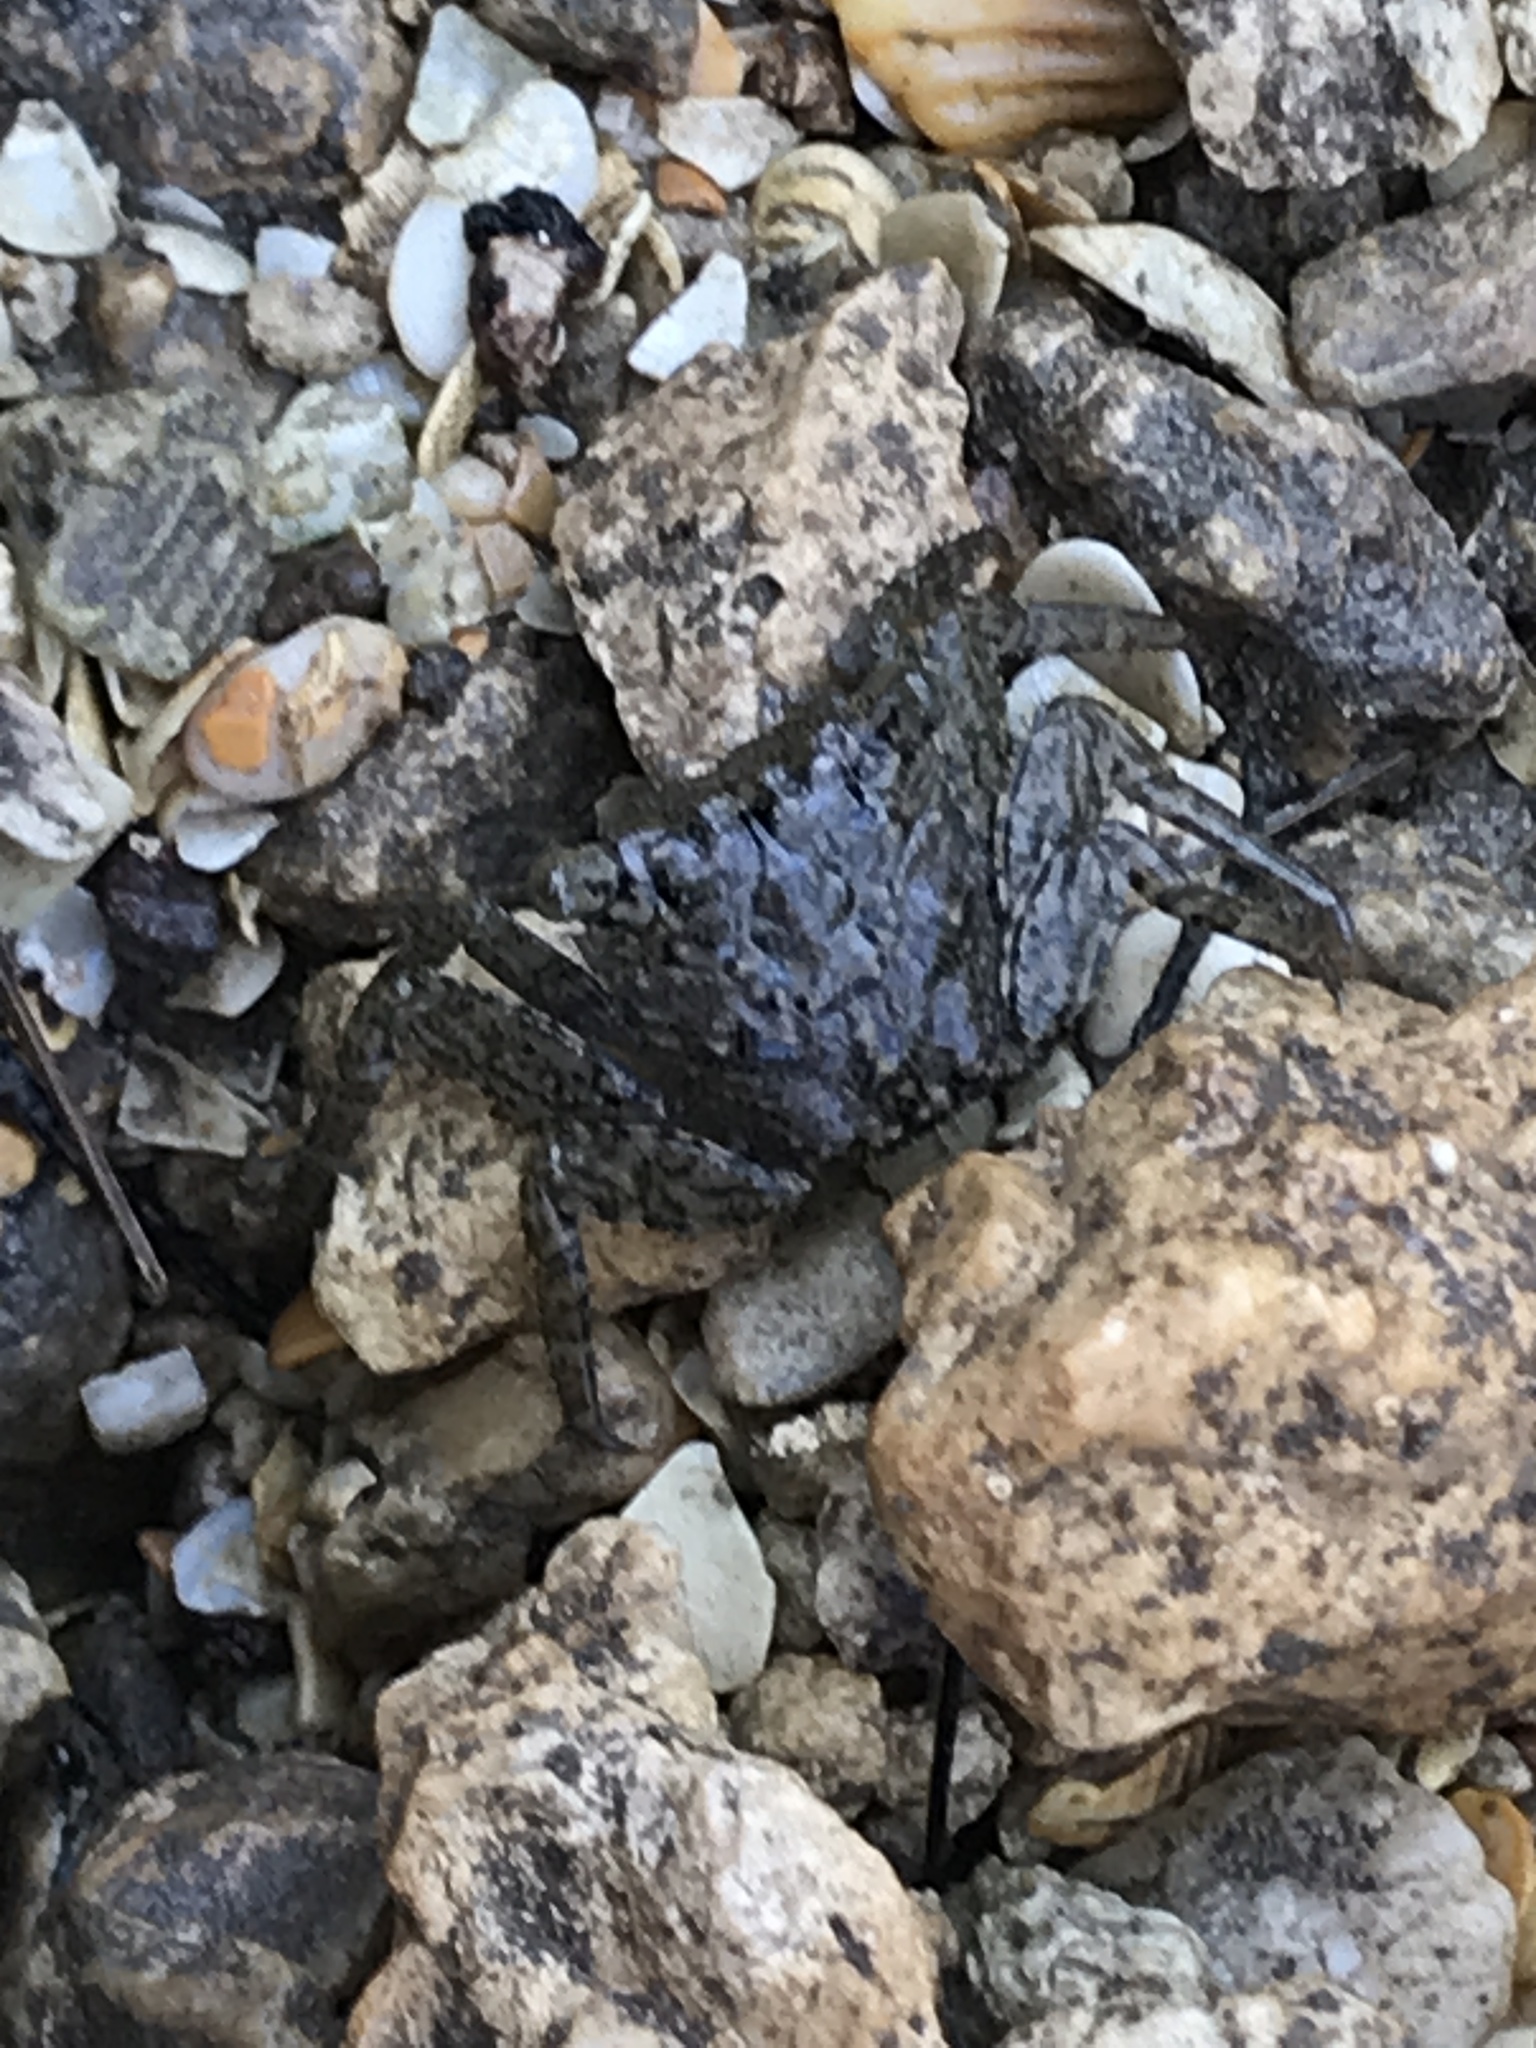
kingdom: Animalia
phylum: Arthropoda
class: Malacostraca
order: Decapoda
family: Sesarmidae
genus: Aratus
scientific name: Aratus pisonii
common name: Mangrove crab
